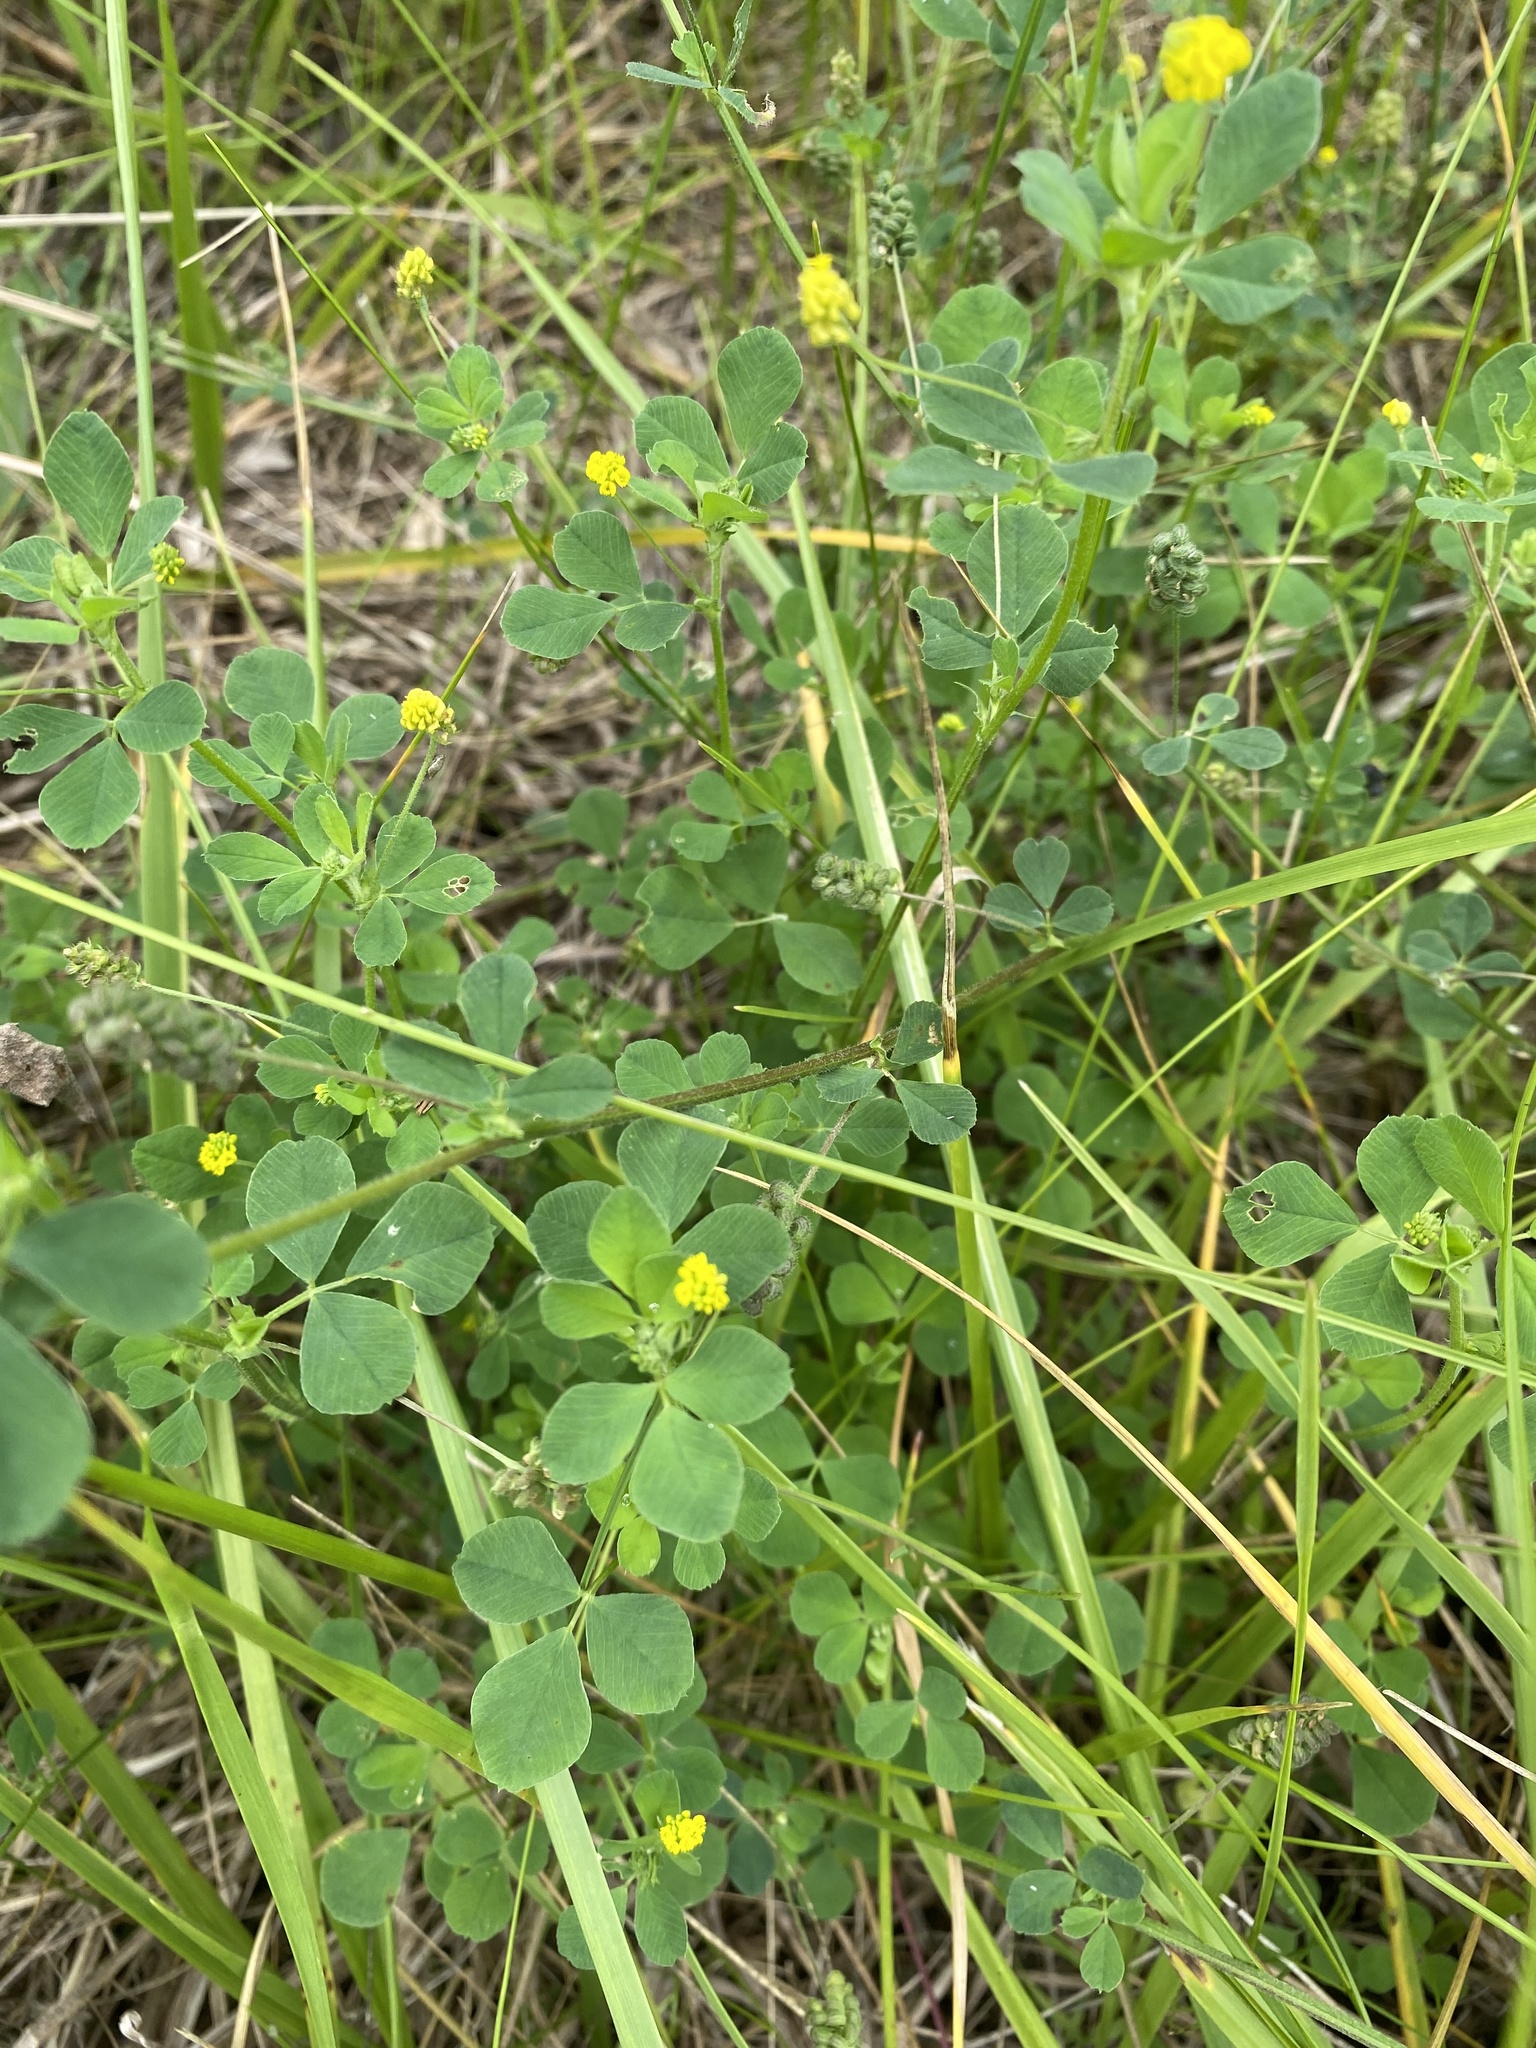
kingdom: Plantae
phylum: Tracheophyta
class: Magnoliopsida
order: Fabales
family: Fabaceae
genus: Medicago
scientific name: Medicago lupulina
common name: Black medick
